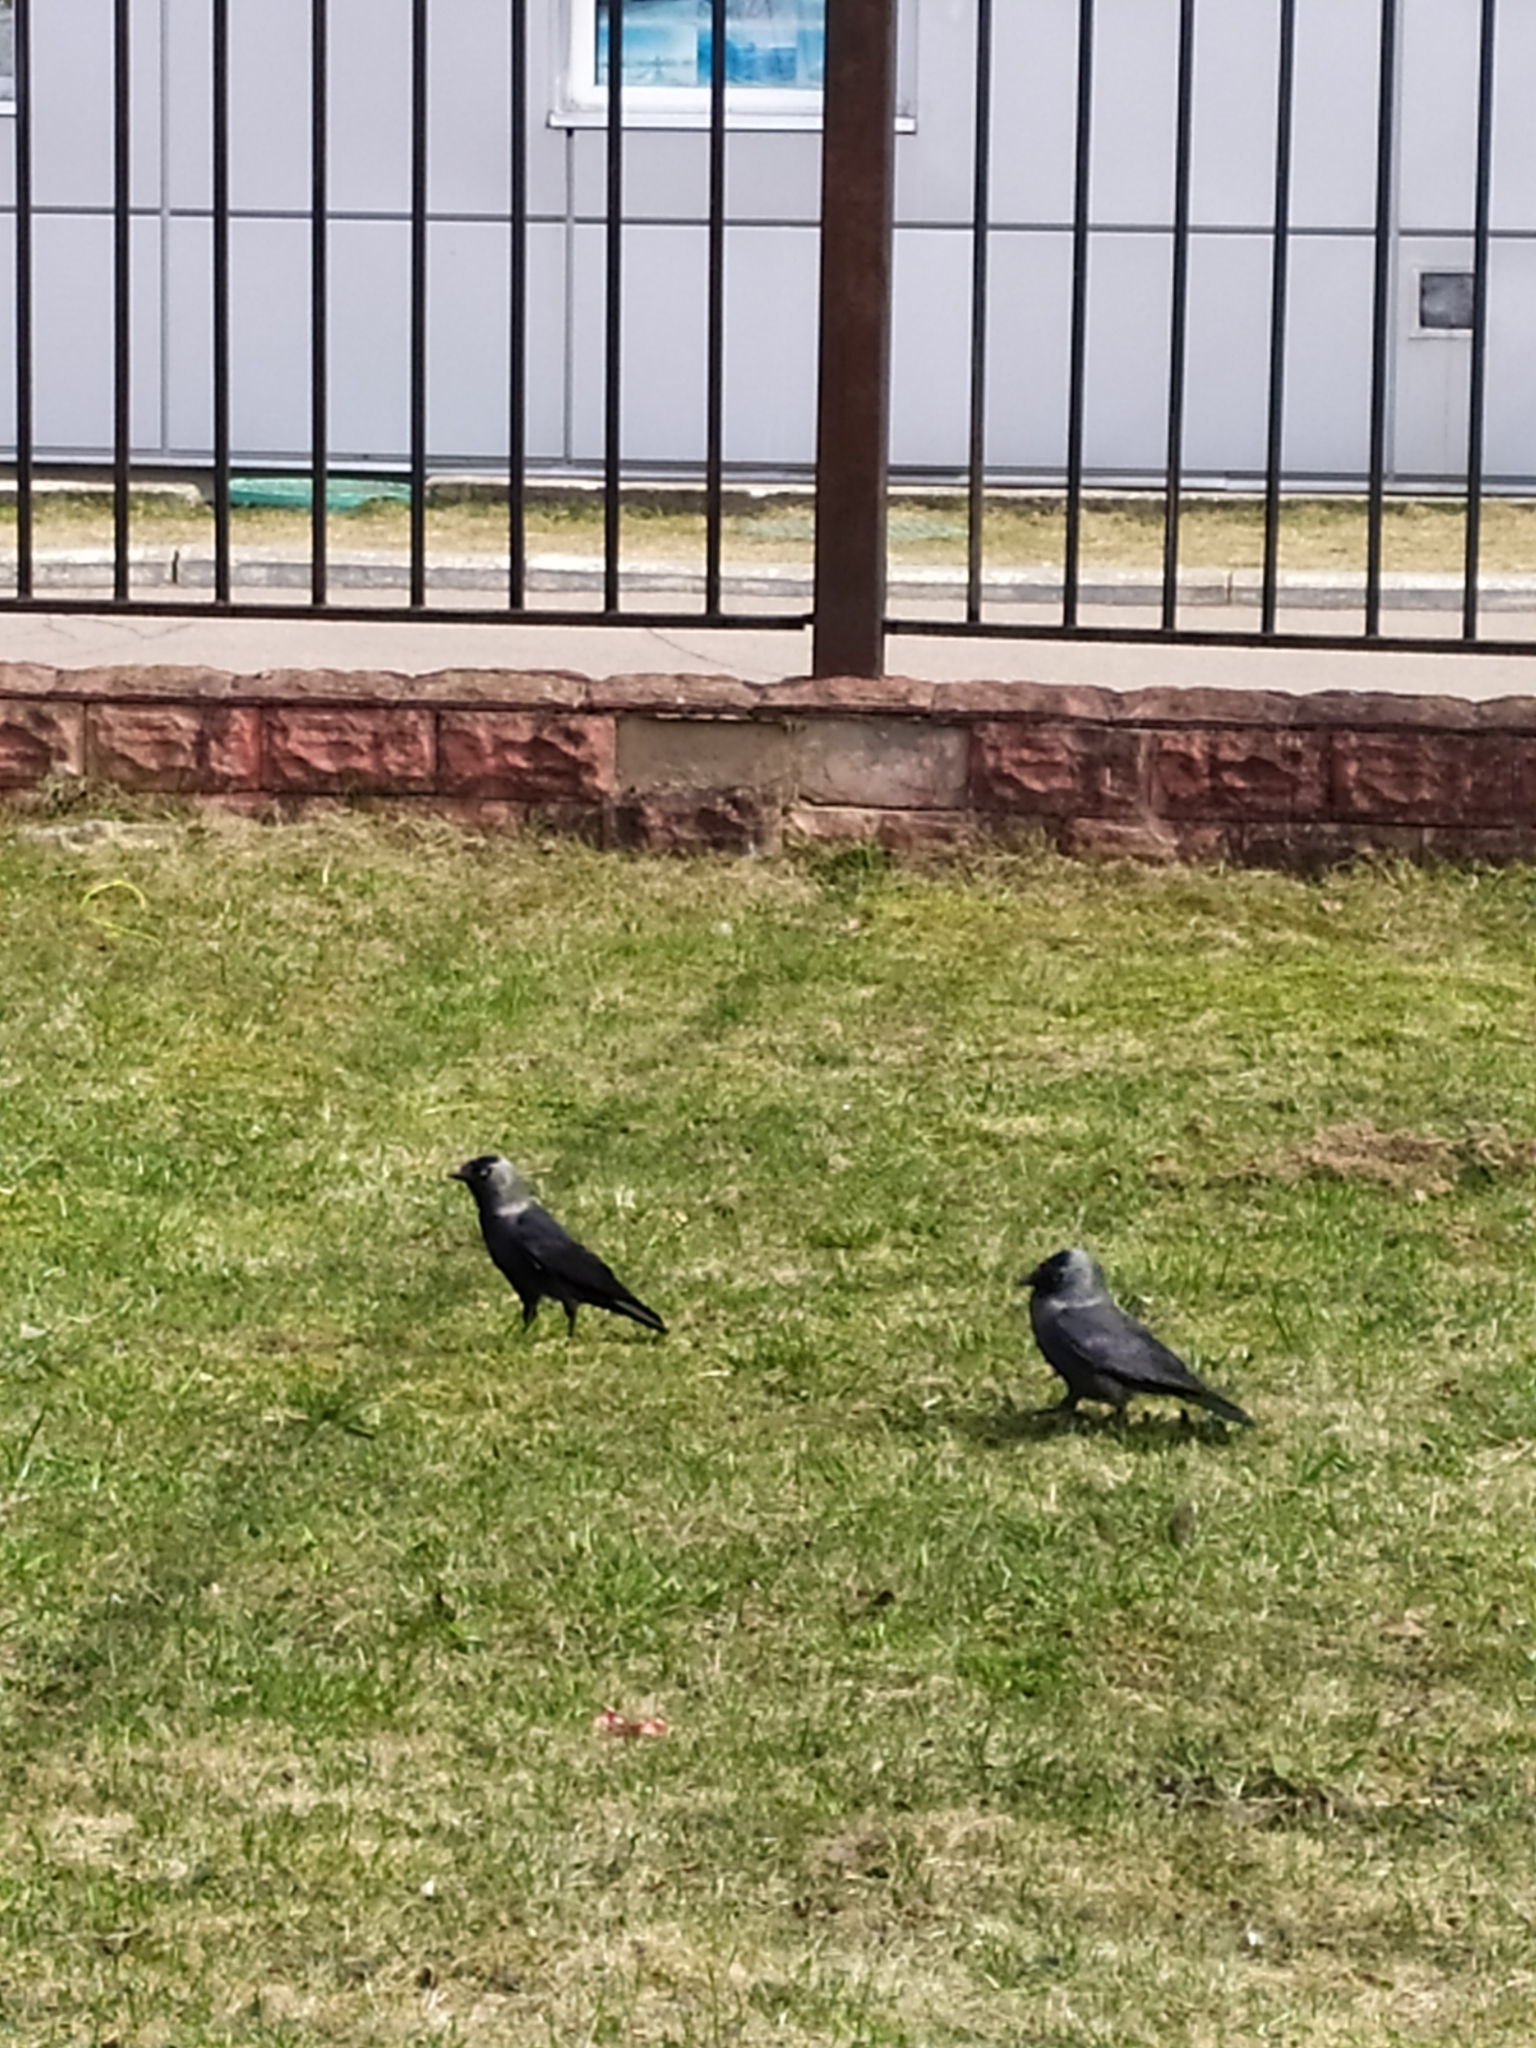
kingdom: Animalia
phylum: Chordata
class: Aves
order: Passeriformes
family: Corvidae
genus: Coloeus
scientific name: Coloeus monedula
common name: Western jackdaw
